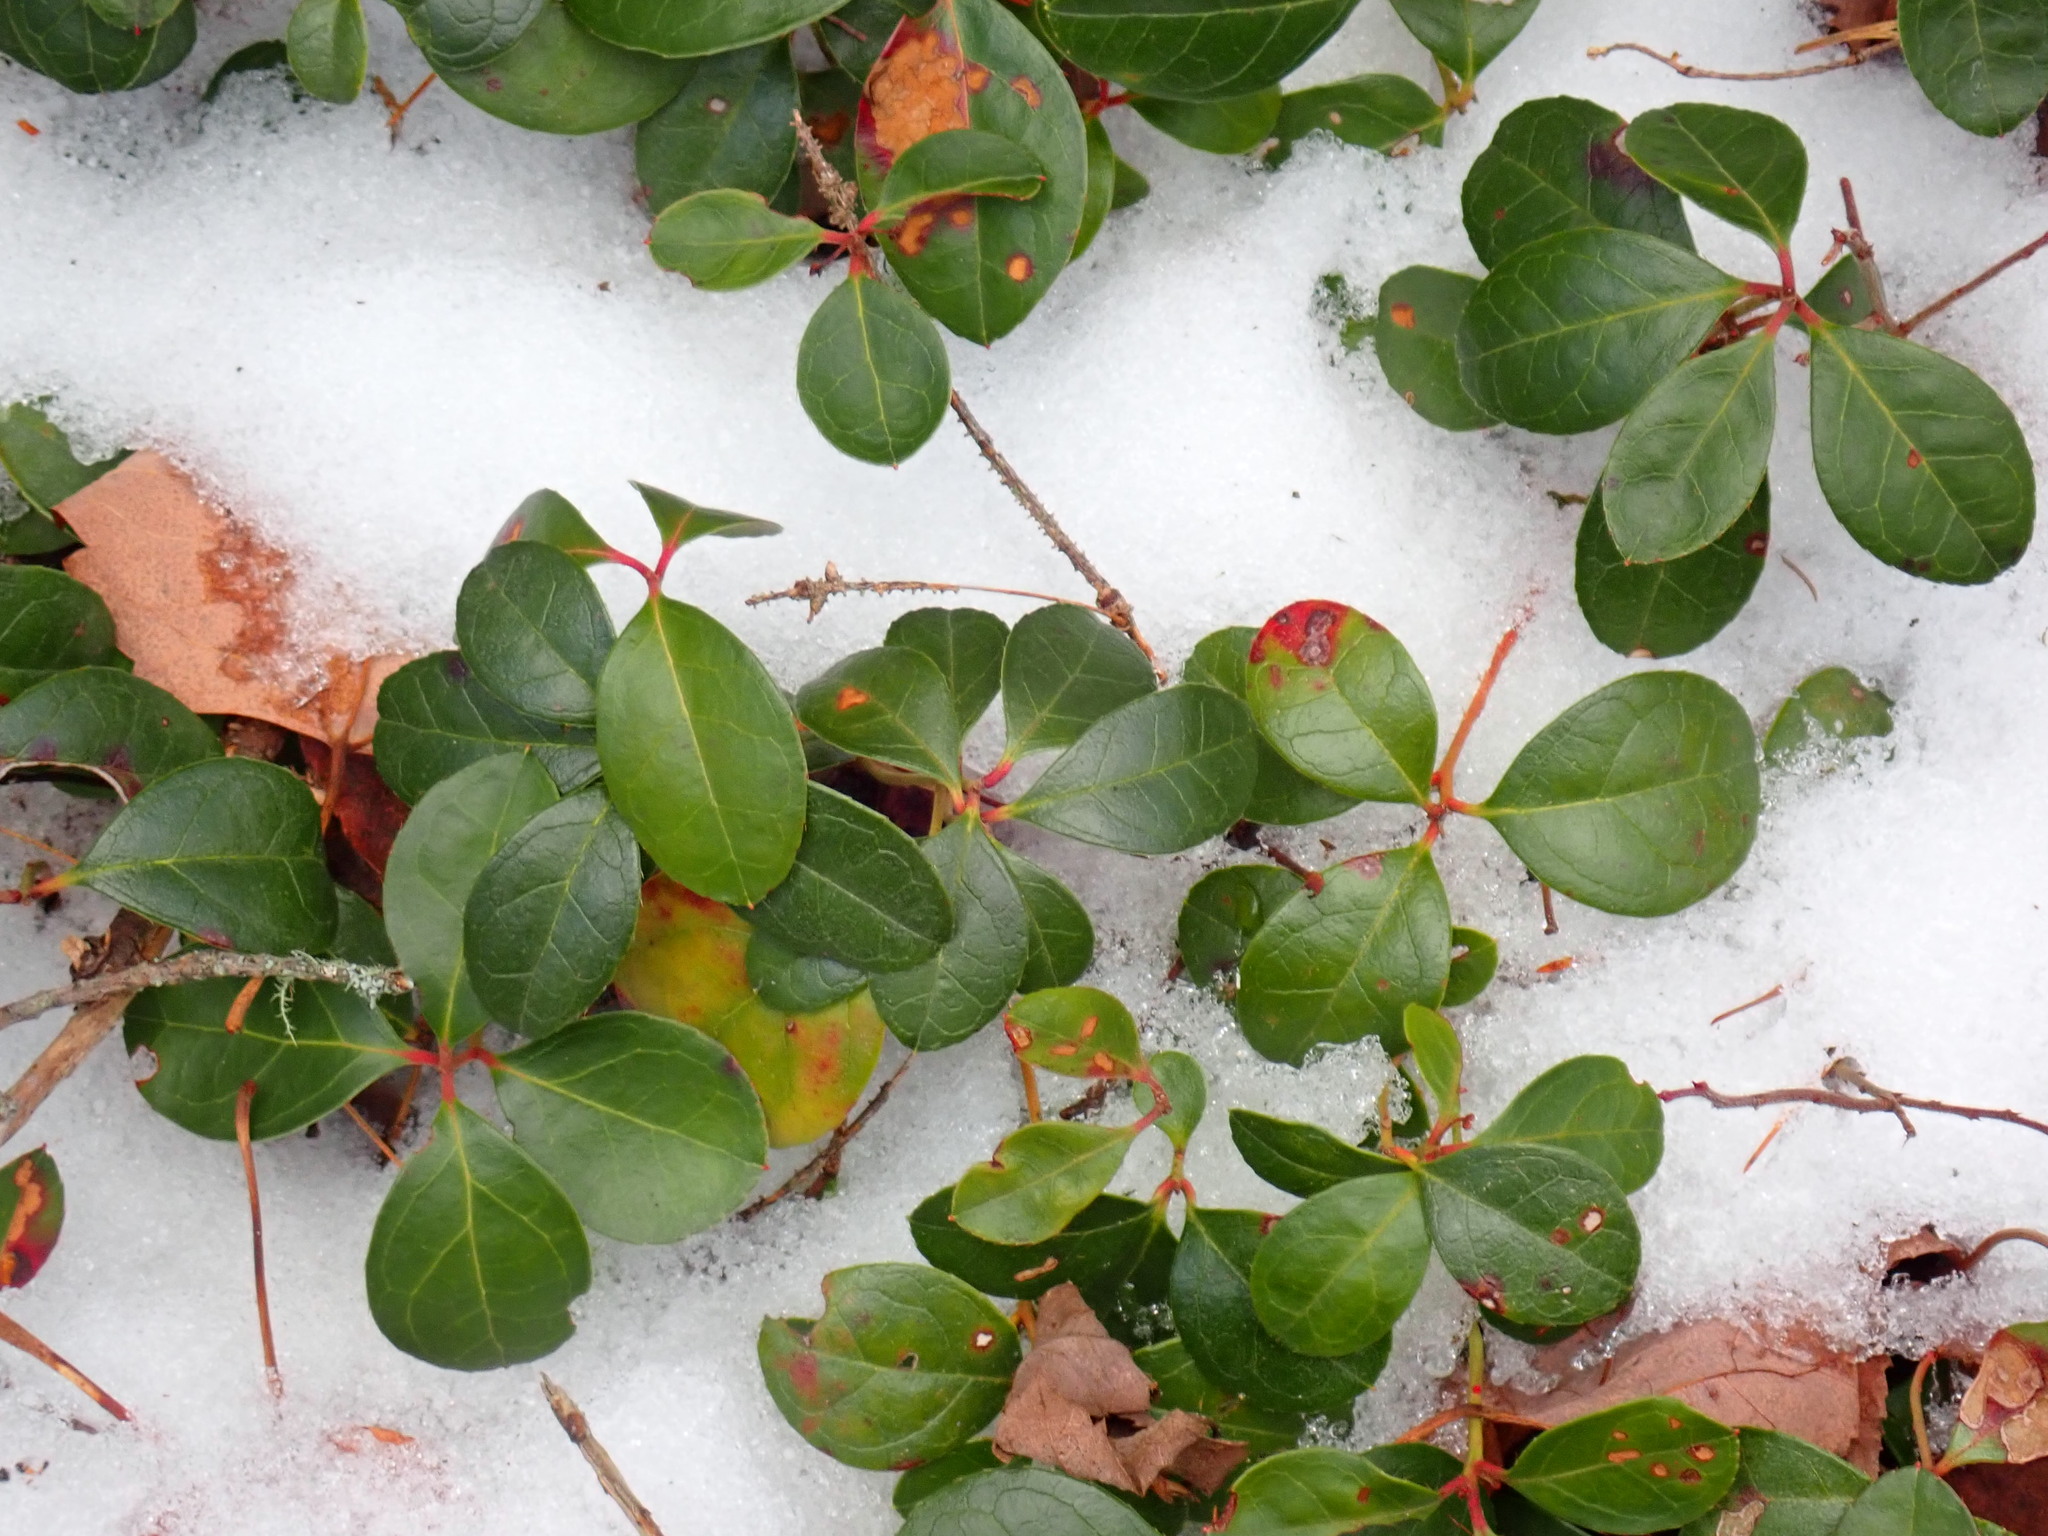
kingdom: Plantae
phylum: Tracheophyta
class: Magnoliopsida
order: Ericales
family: Ericaceae
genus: Gaultheria
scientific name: Gaultheria procumbens
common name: Checkerberry
